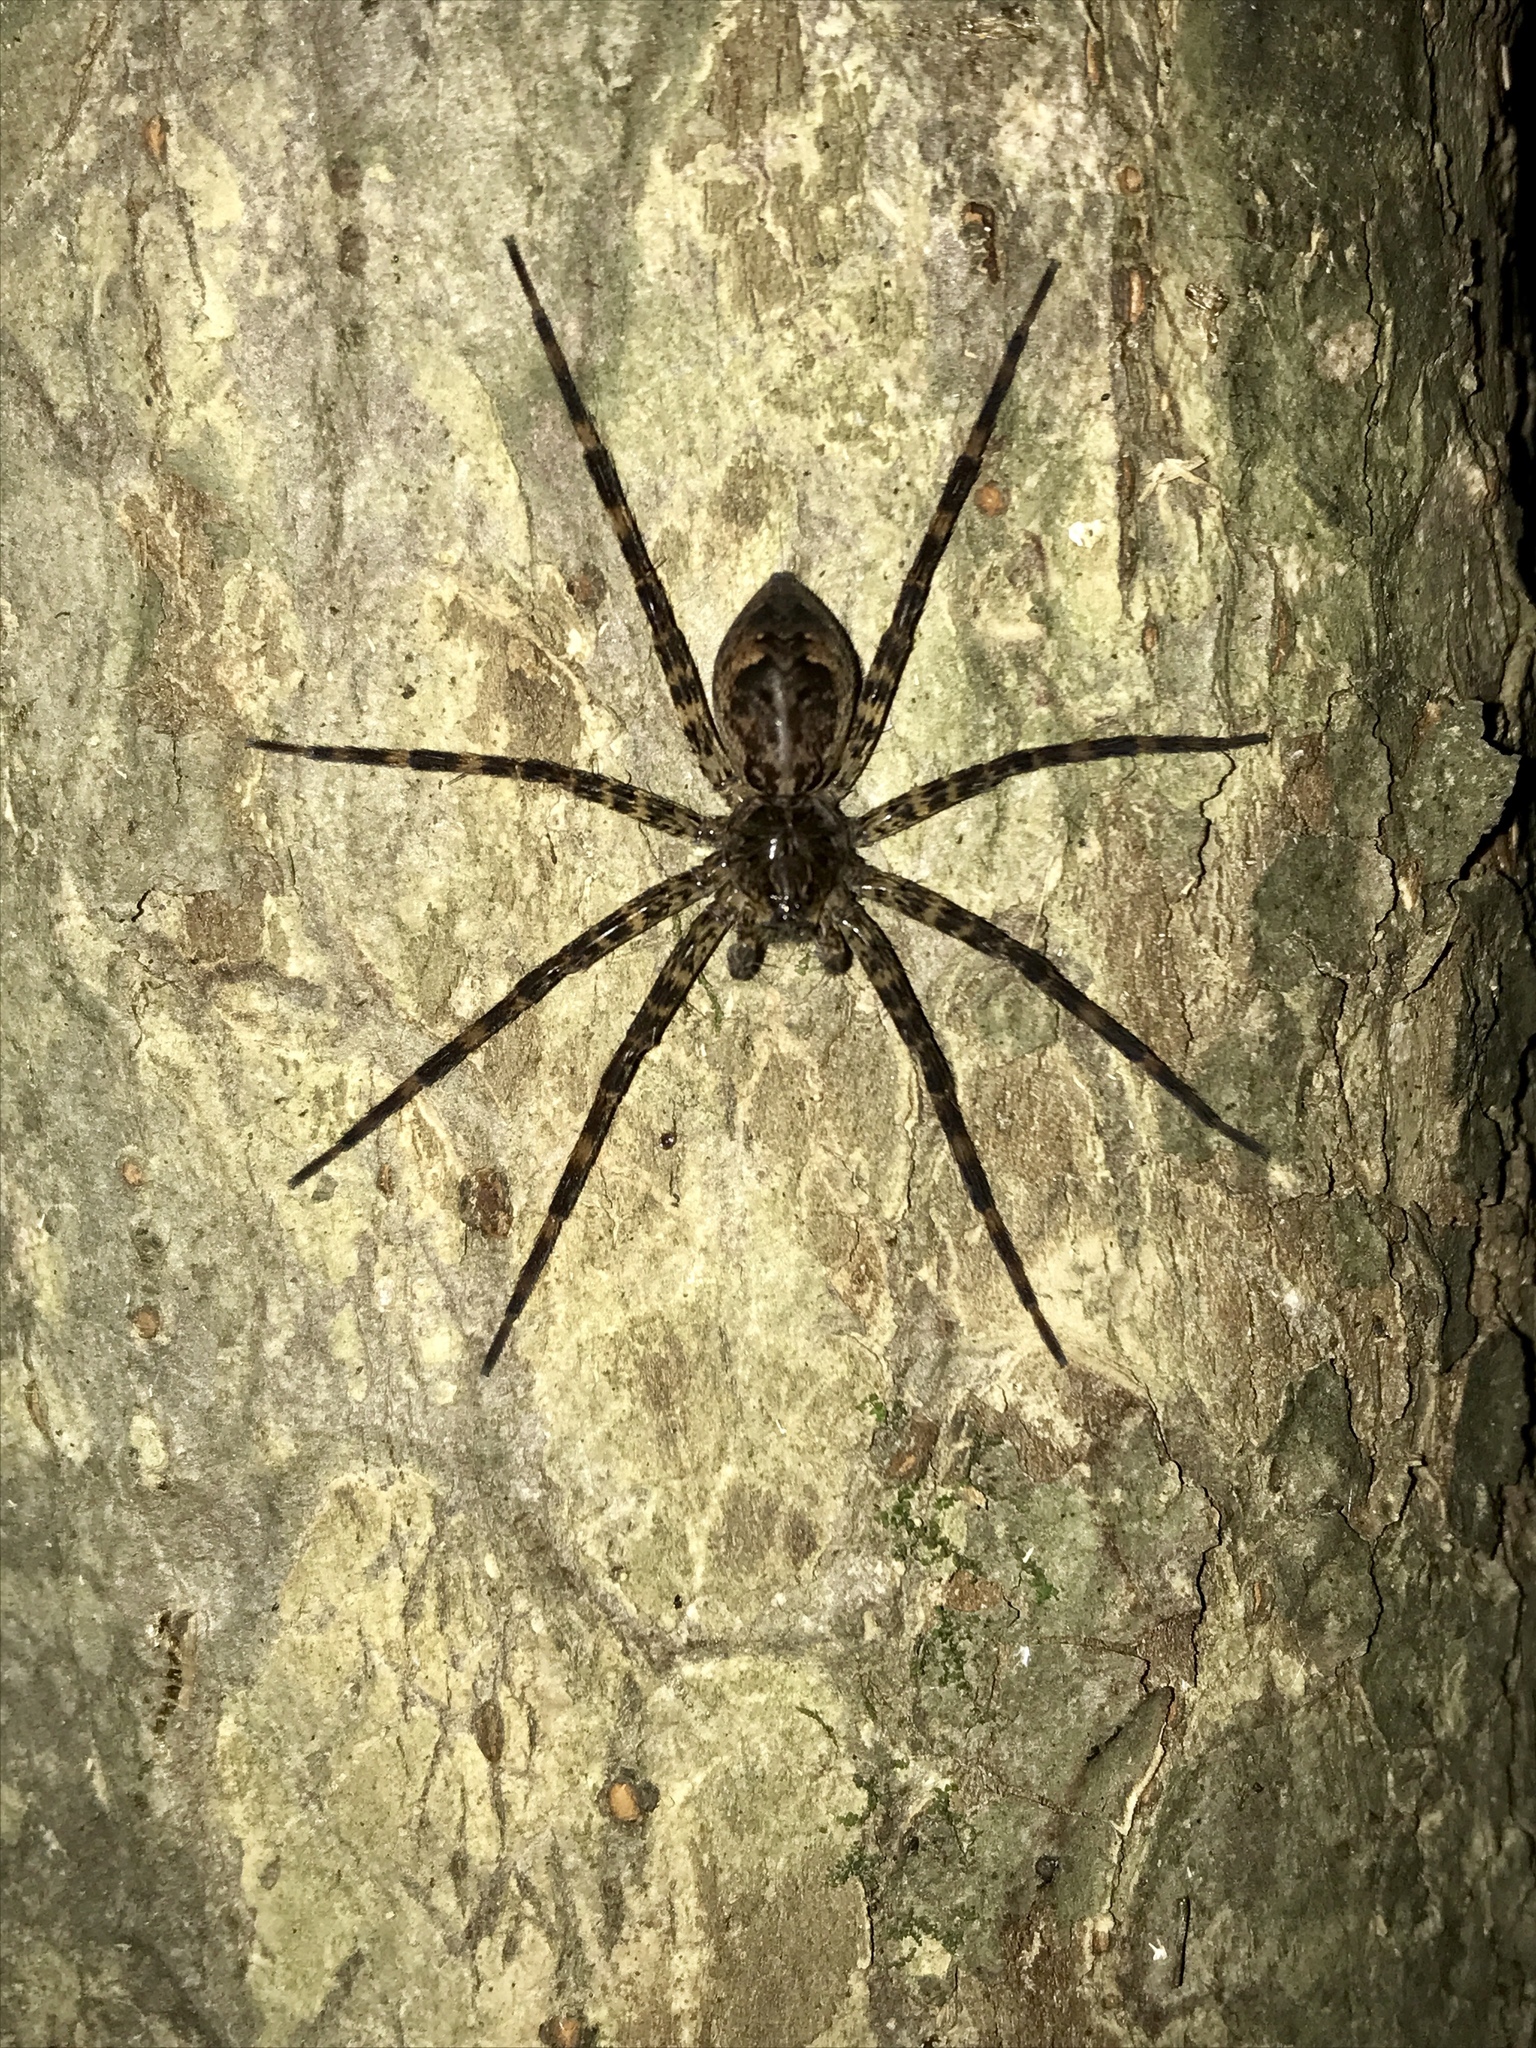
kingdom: Animalia
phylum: Arthropoda
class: Arachnida
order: Araneae
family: Pisauridae
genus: Dolomedes
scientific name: Dolomedes tenebrosus
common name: Dark fishing spider
